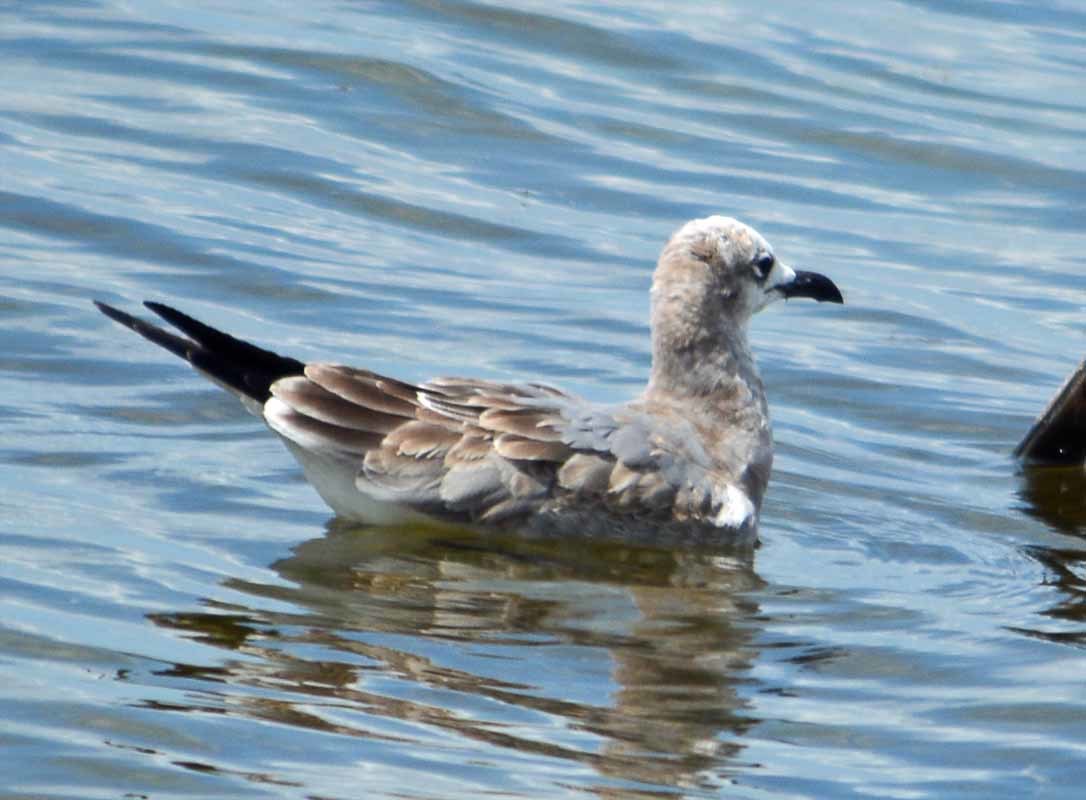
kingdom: Animalia
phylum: Chordata
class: Aves
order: Charadriiformes
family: Laridae
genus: Leucophaeus
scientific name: Leucophaeus atricilla
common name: Laughing gull
